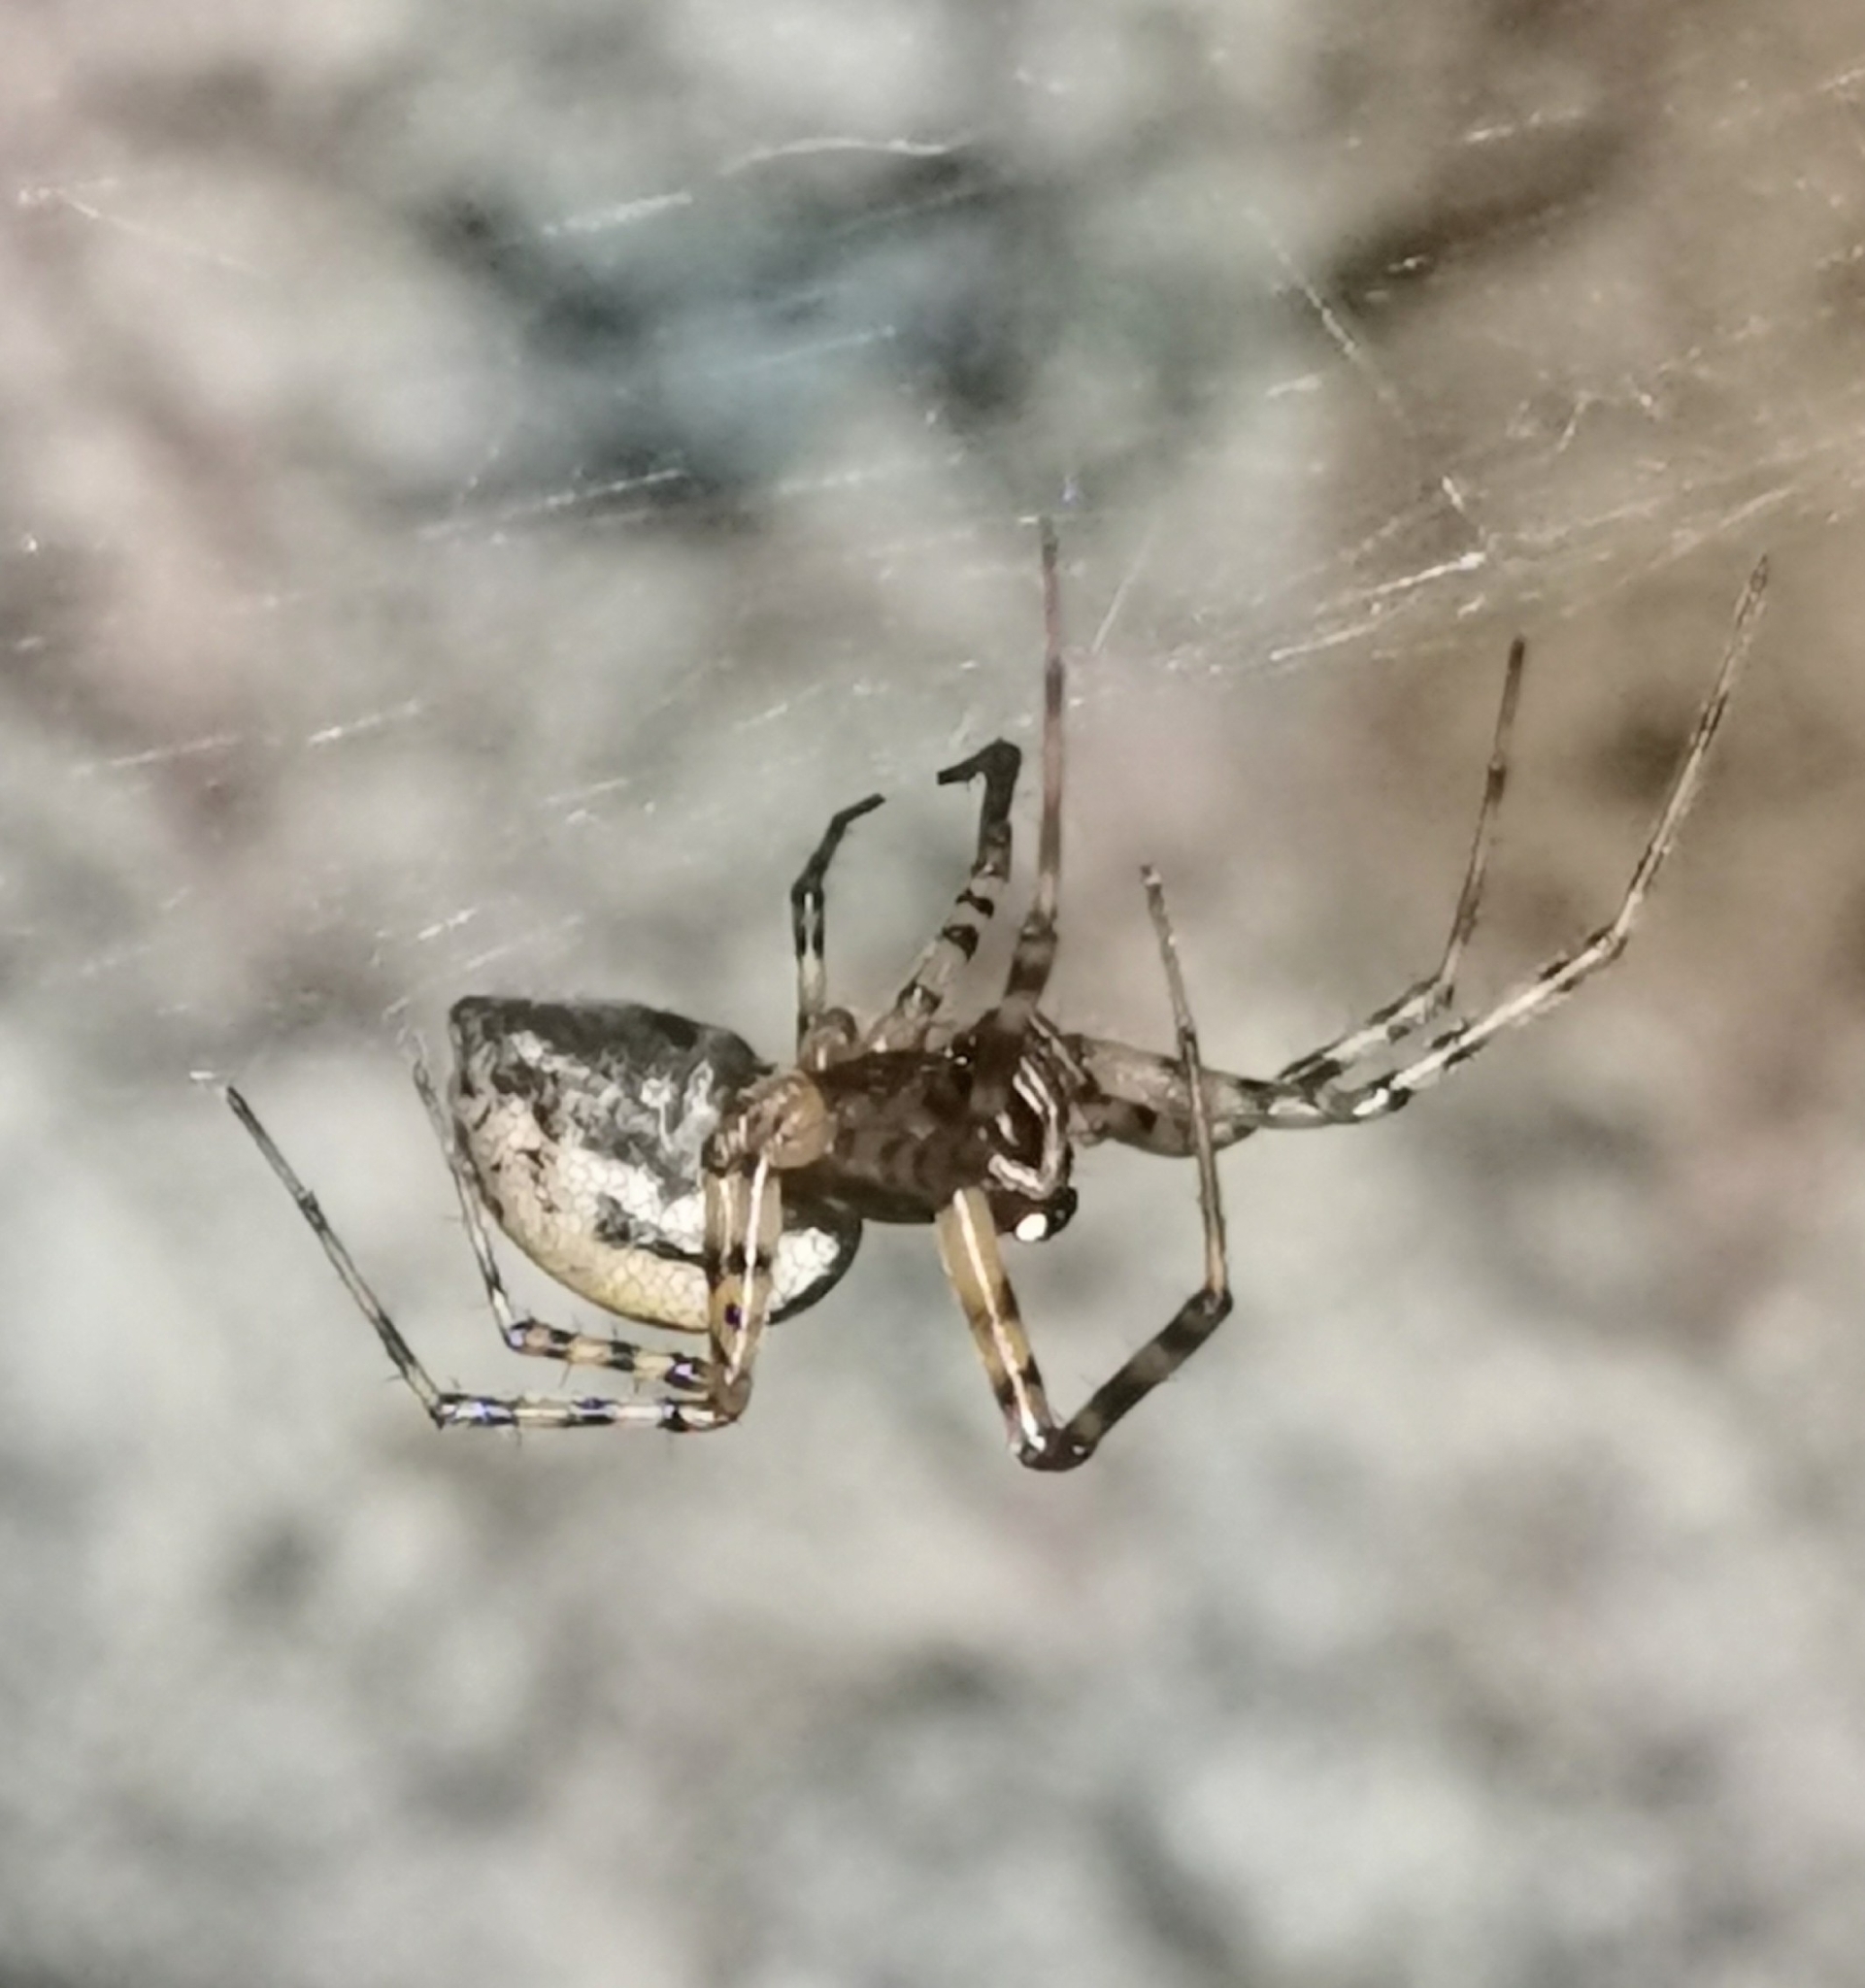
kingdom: Animalia
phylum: Arthropoda
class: Arachnida
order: Araneae
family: Linyphiidae
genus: Neriene
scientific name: Neriene montana
